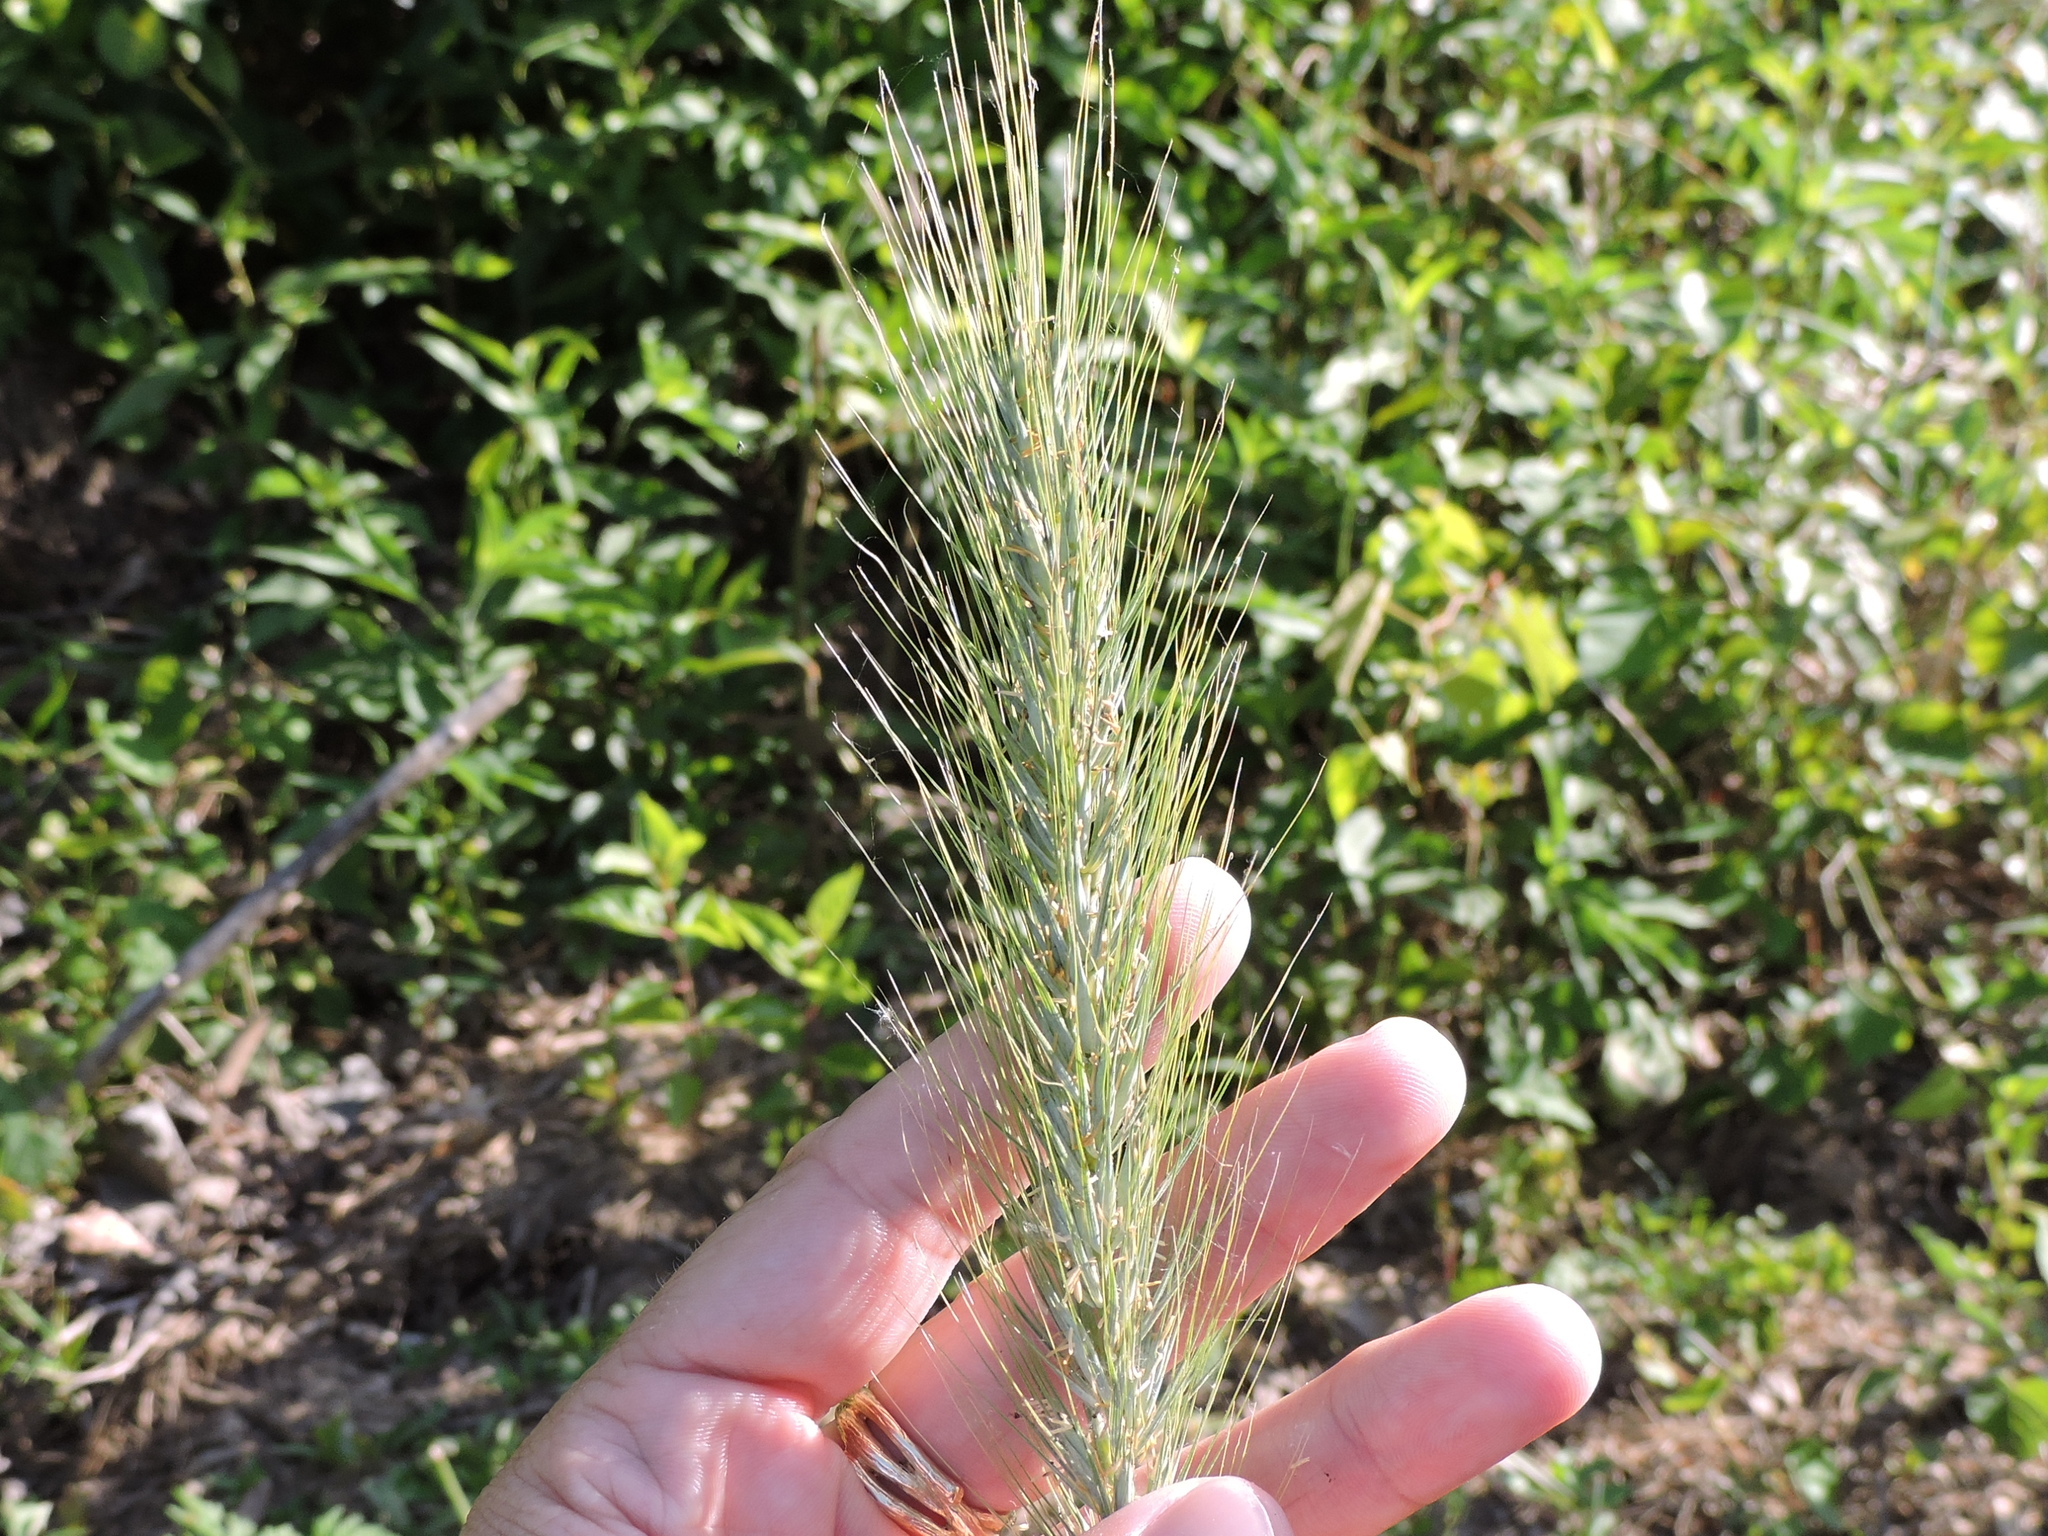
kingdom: Plantae
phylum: Tracheophyta
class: Liliopsida
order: Poales
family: Poaceae
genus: Elymus
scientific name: Elymus virginicus
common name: Common eastern wildrye
